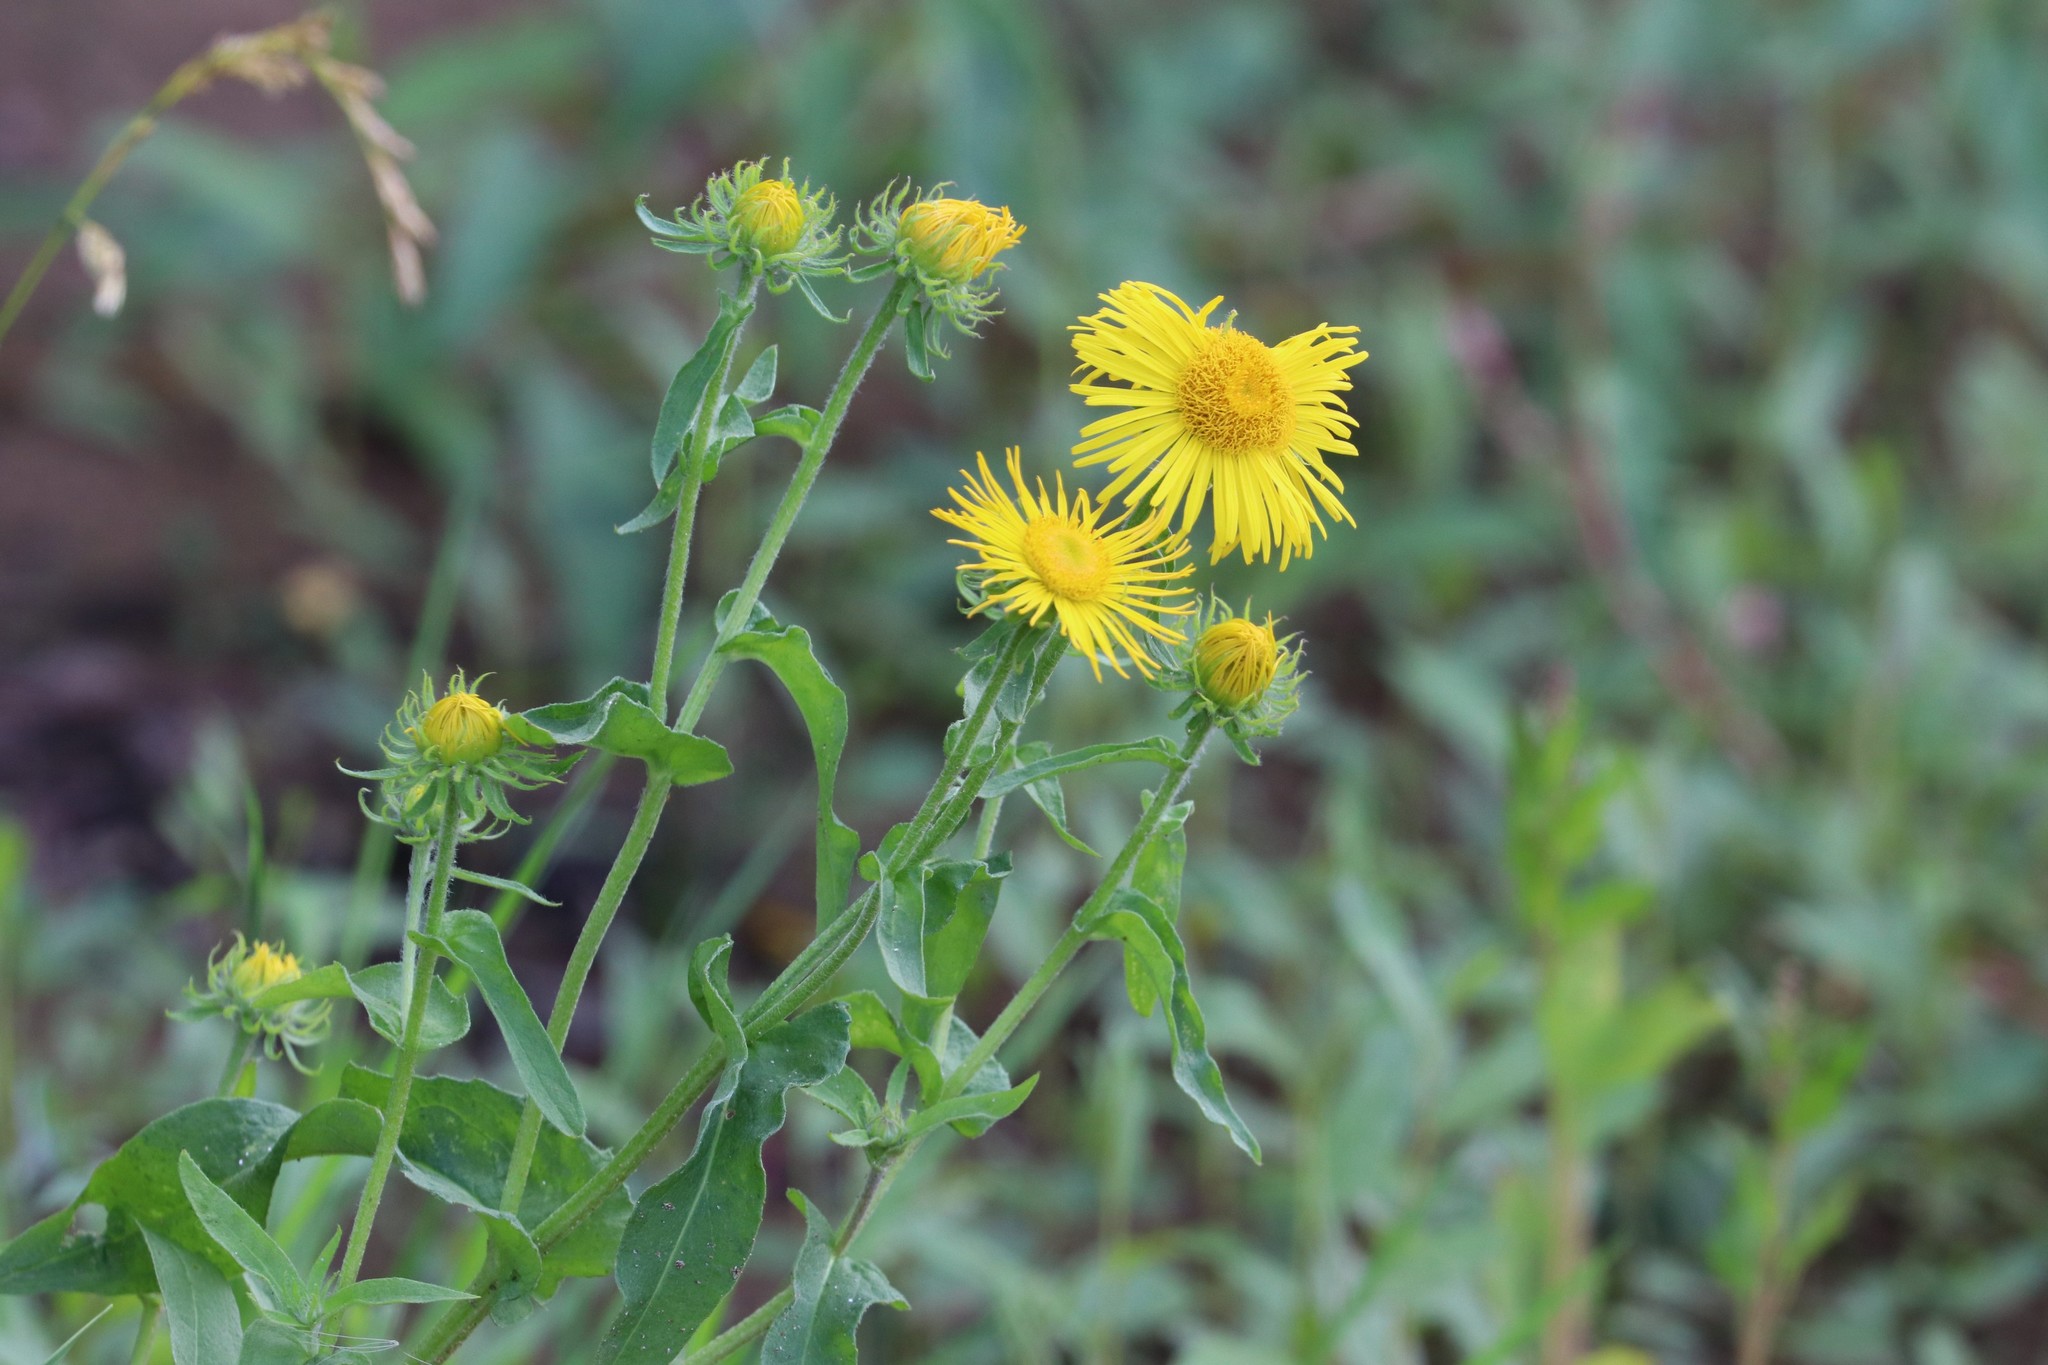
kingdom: Plantae
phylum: Tracheophyta
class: Magnoliopsida
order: Asterales
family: Asteraceae
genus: Pentanema
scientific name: Pentanema britannicum
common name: British elecampane
